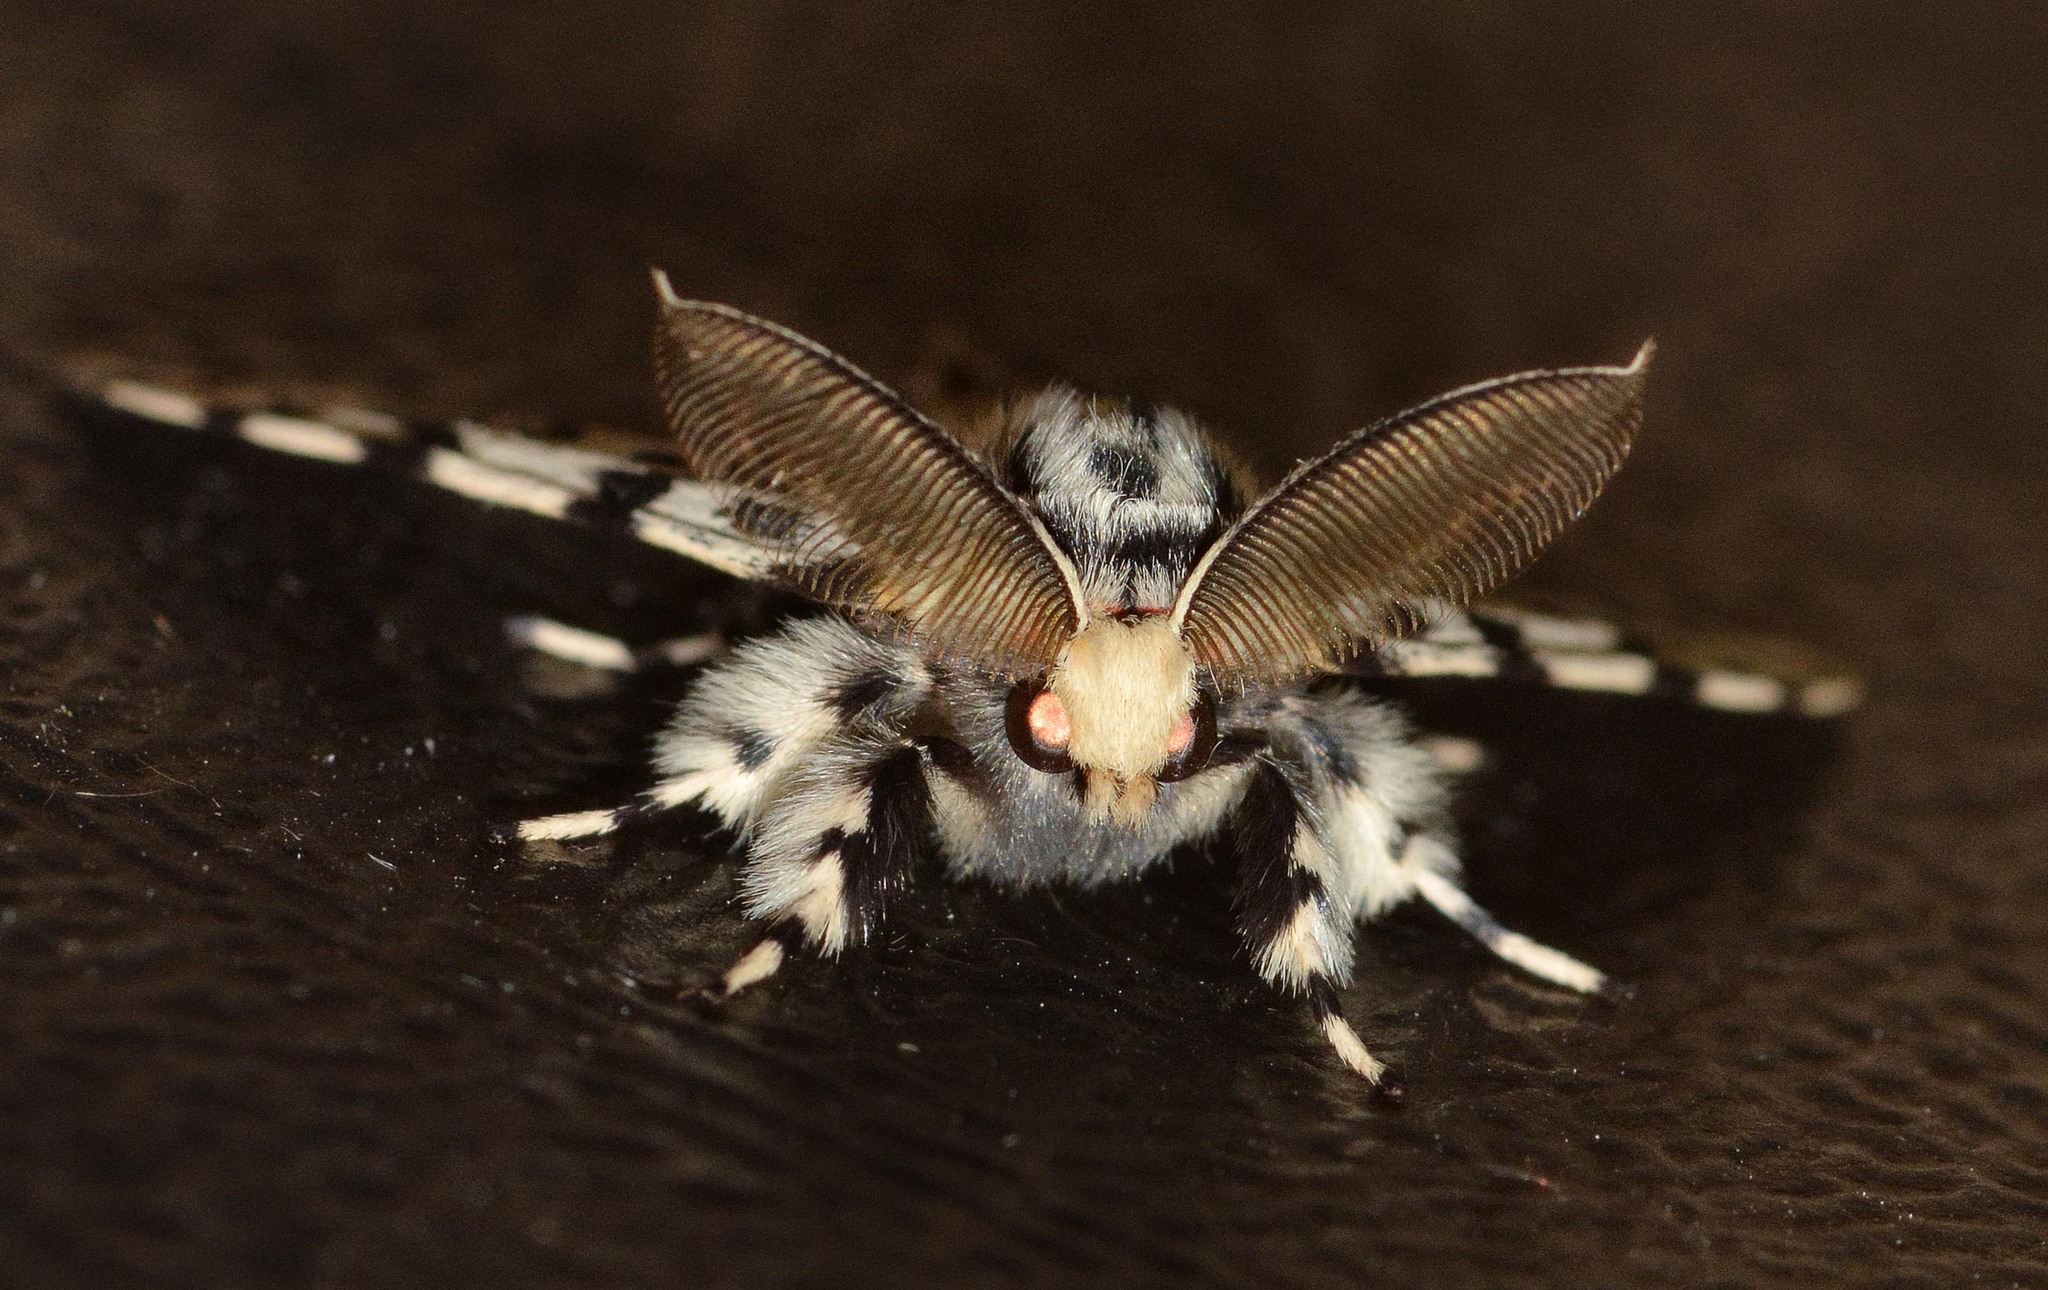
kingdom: Animalia
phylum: Arthropoda
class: Insecta
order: Lepidoptera
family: Erebidae
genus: Lymantria
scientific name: Lymantria monacha
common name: Black arches
